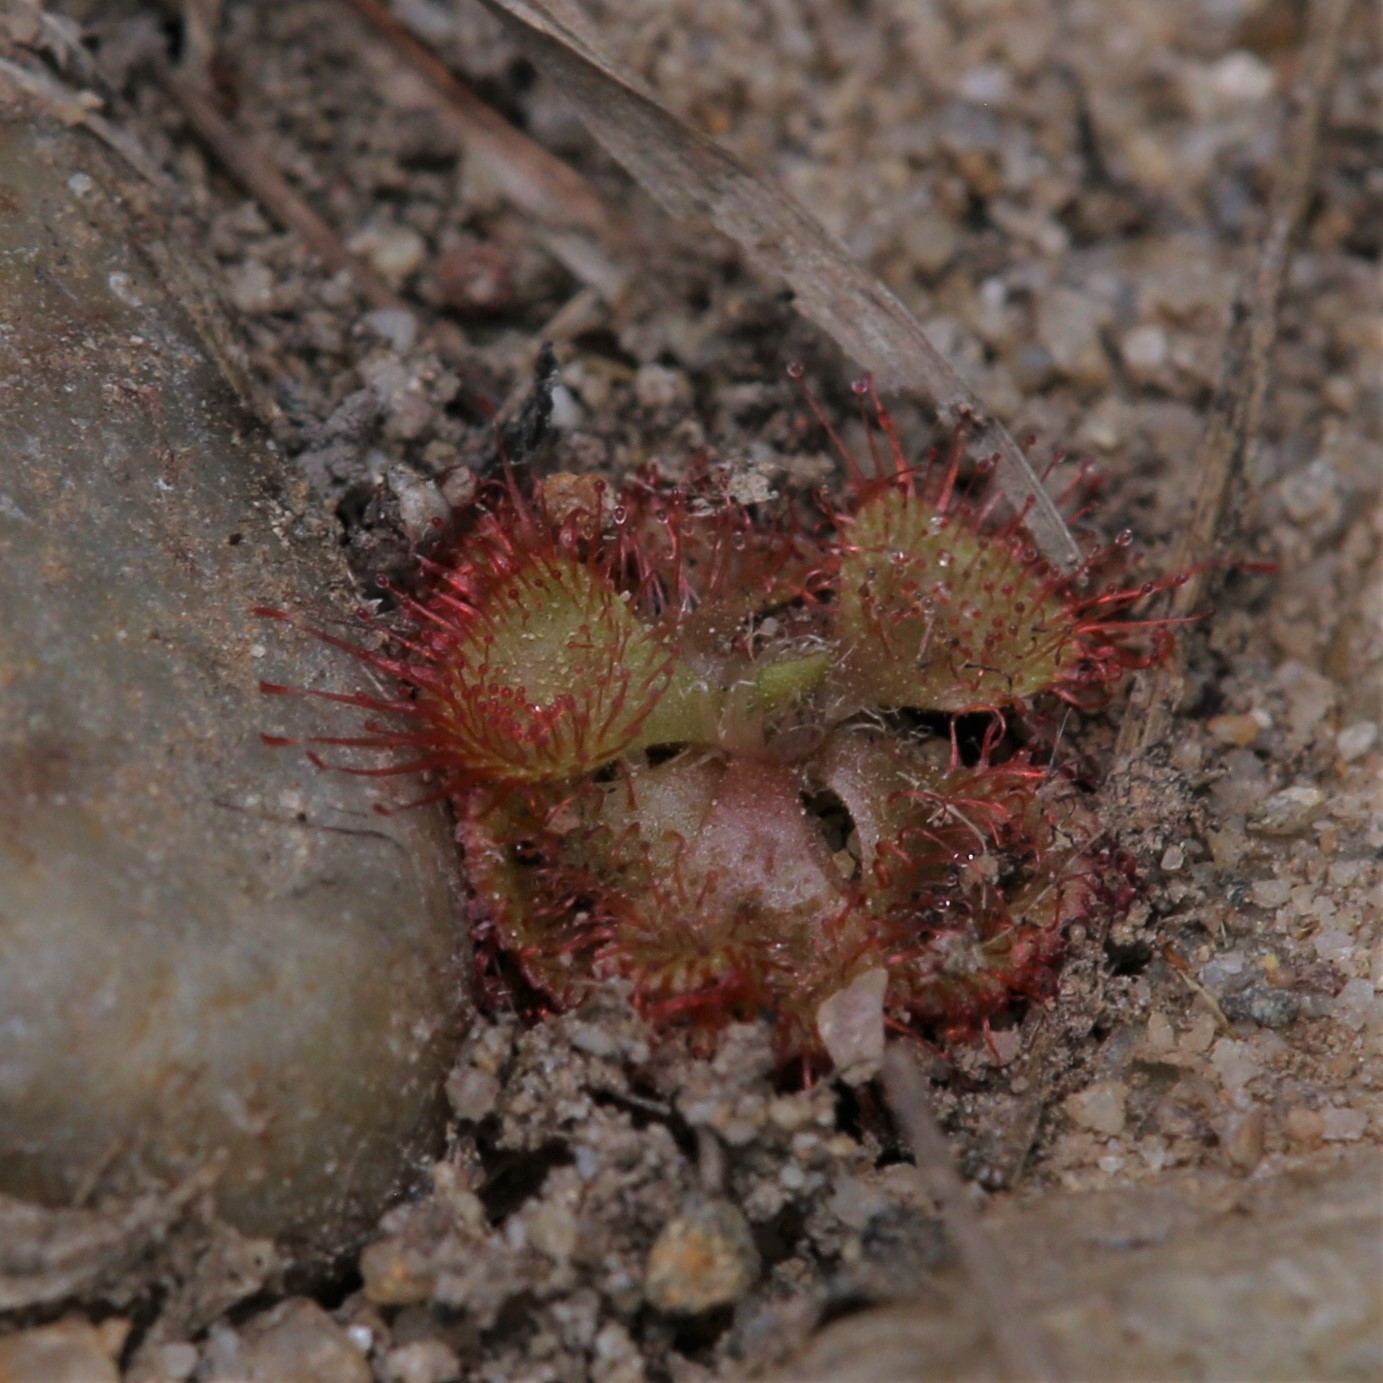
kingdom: Plantae
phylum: Tracheophyta
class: Magnoliopsida
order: Caryophyllales
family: Droseraceae
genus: Drosera
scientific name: Drosera spatulata
